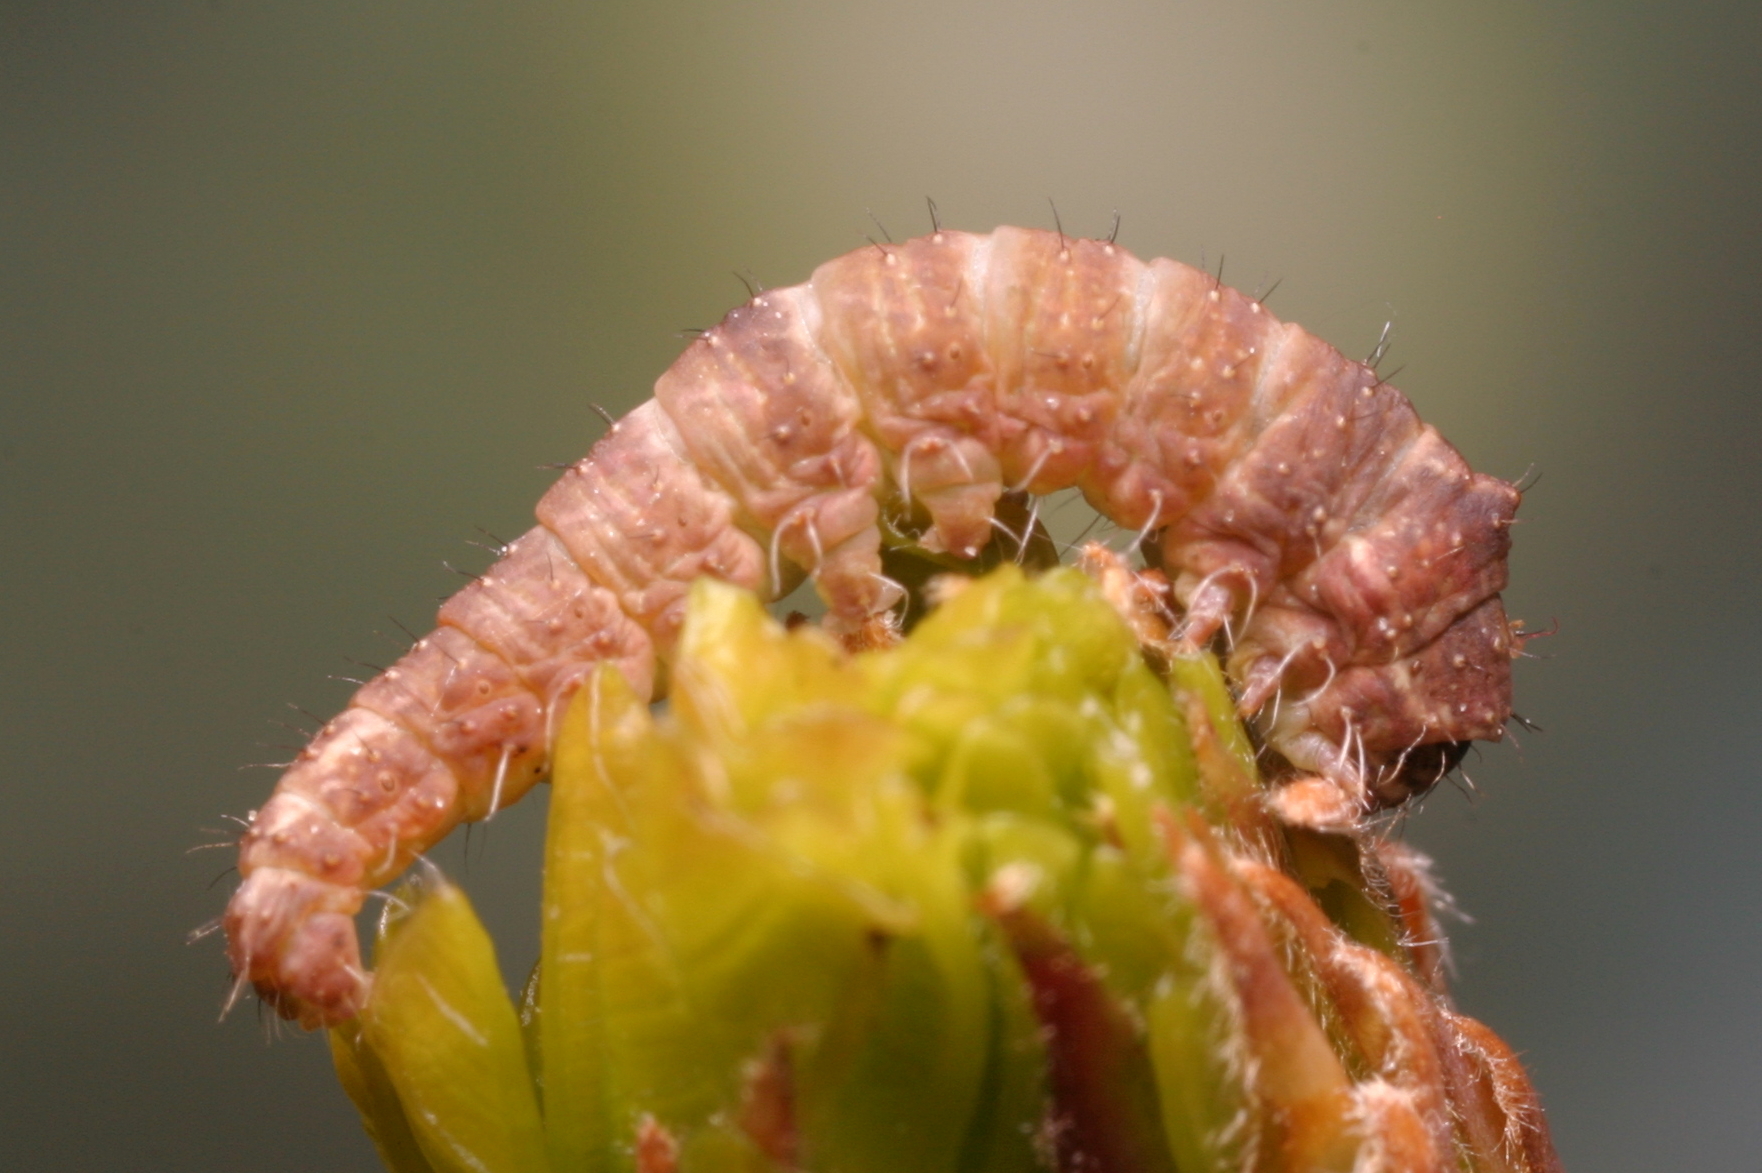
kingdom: Animalia
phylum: Arthropoda
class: Insecta
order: Lepidoptera
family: Nolidae
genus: Bena
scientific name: Bena bicolorana
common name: Scarce silver-lines
